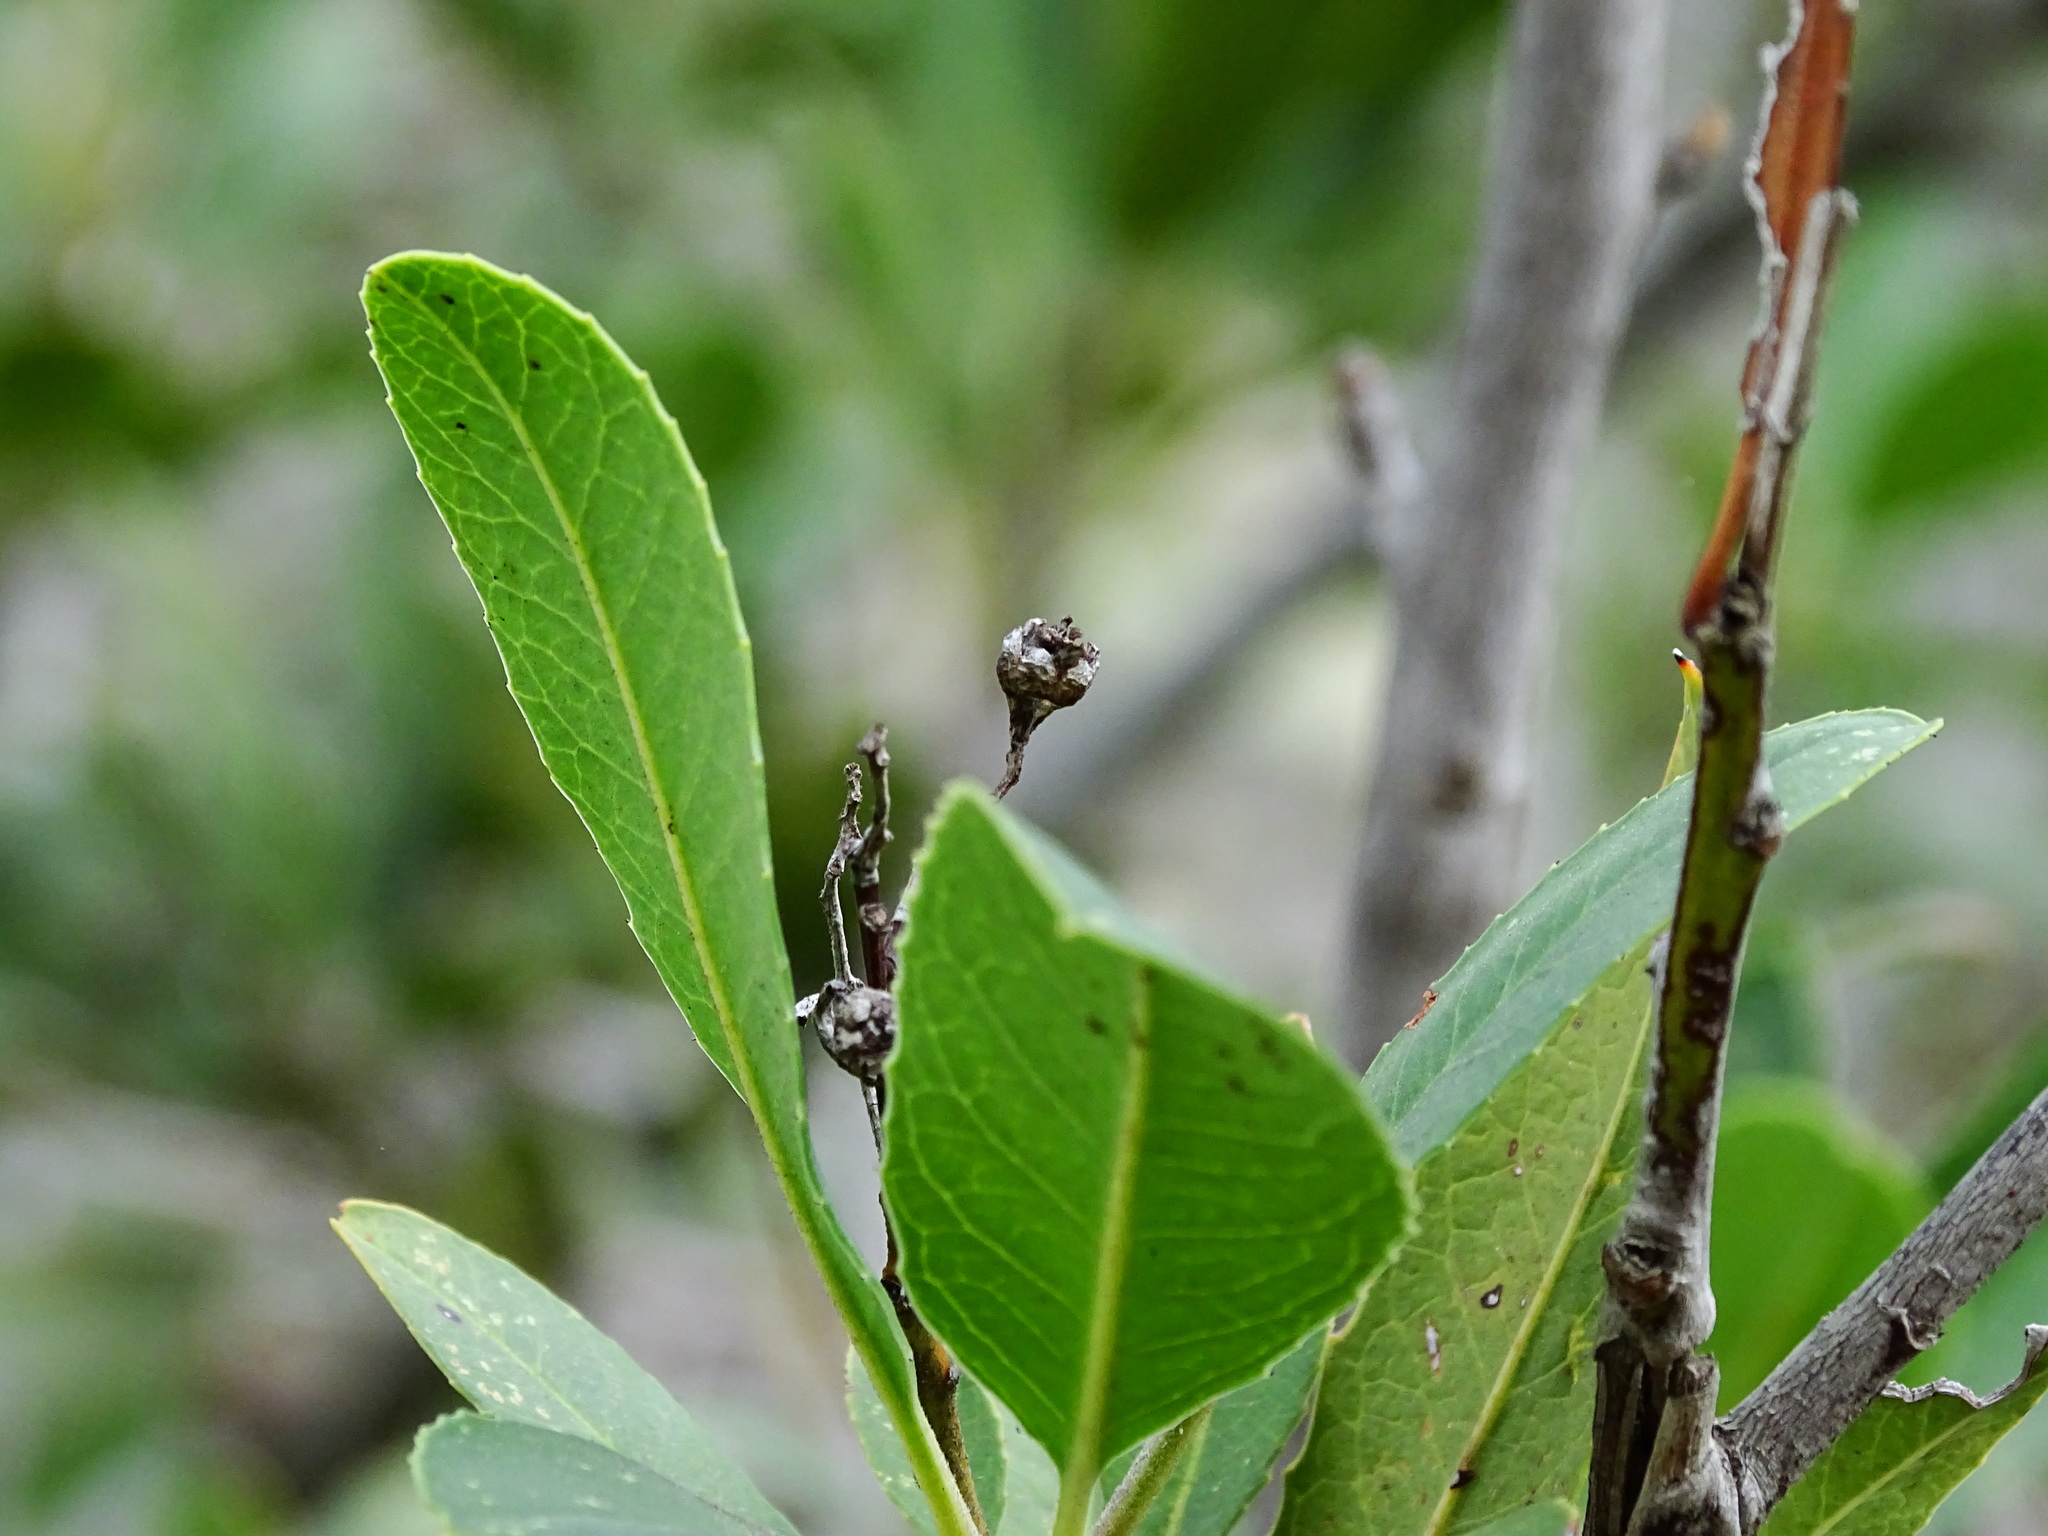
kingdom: Plantae
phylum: Tracheophyta
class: Magnoliopsida
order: Rosales
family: Rosaceae
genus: Heteromeles
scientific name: Heteromeles arbutifolia
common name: California-holly
